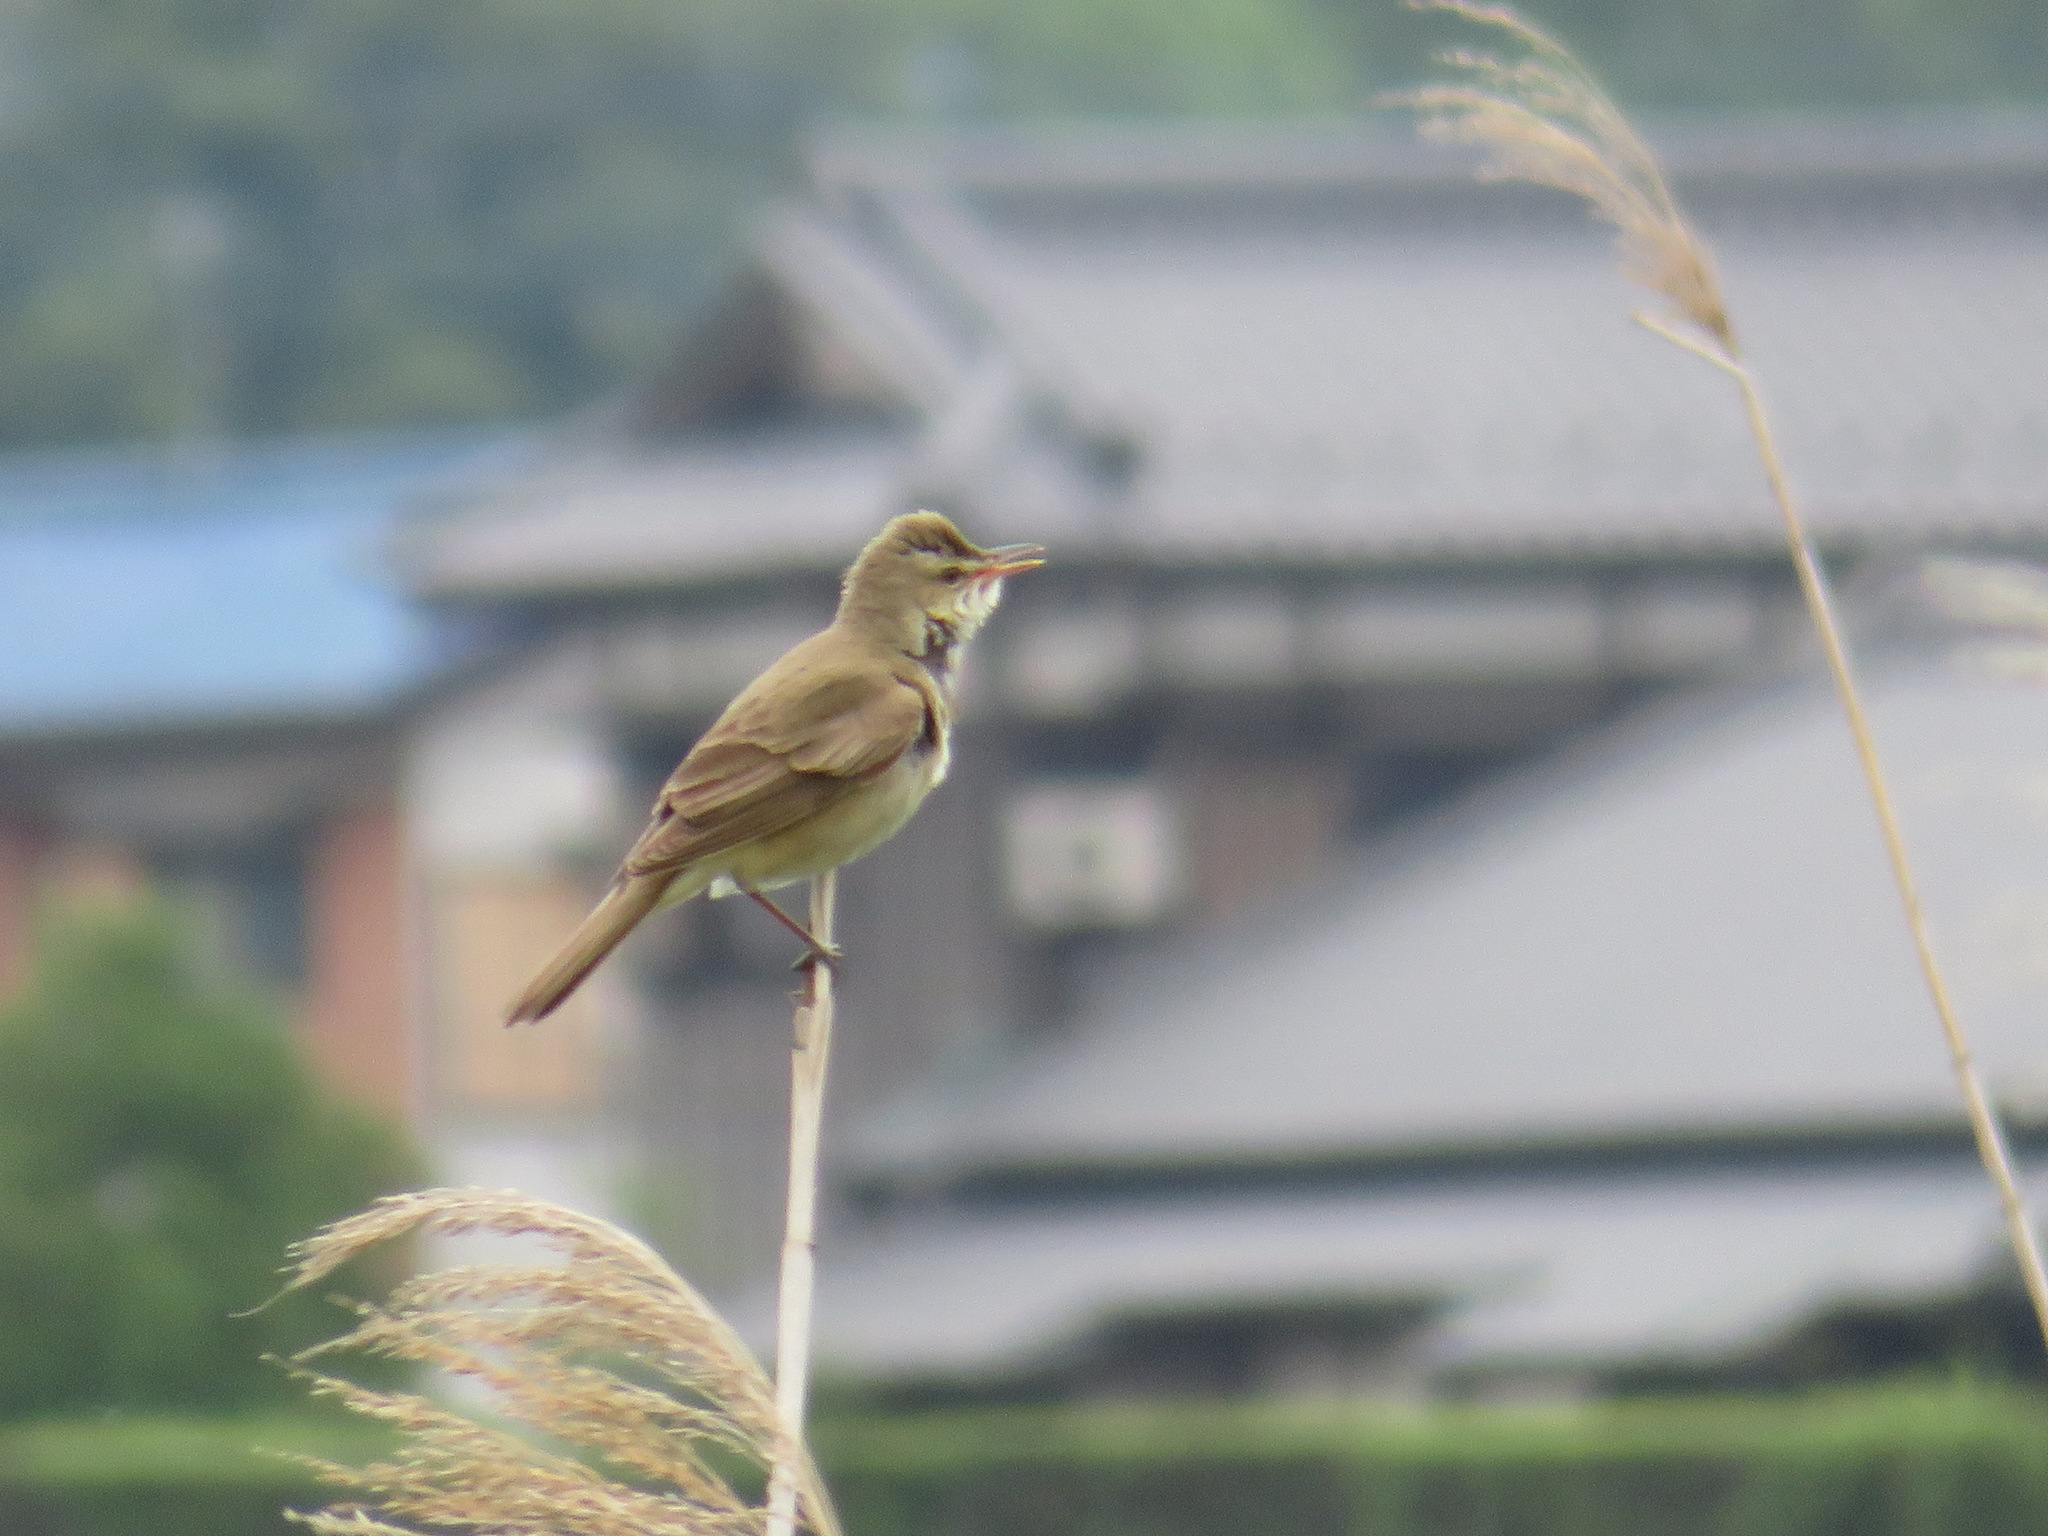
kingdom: Animalia
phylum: Chordata
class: Aves
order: Passeriformes
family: Acrocephalidae
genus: Acrocephalus
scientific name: Acrocephalus orientalis
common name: Oriental reed warbler
